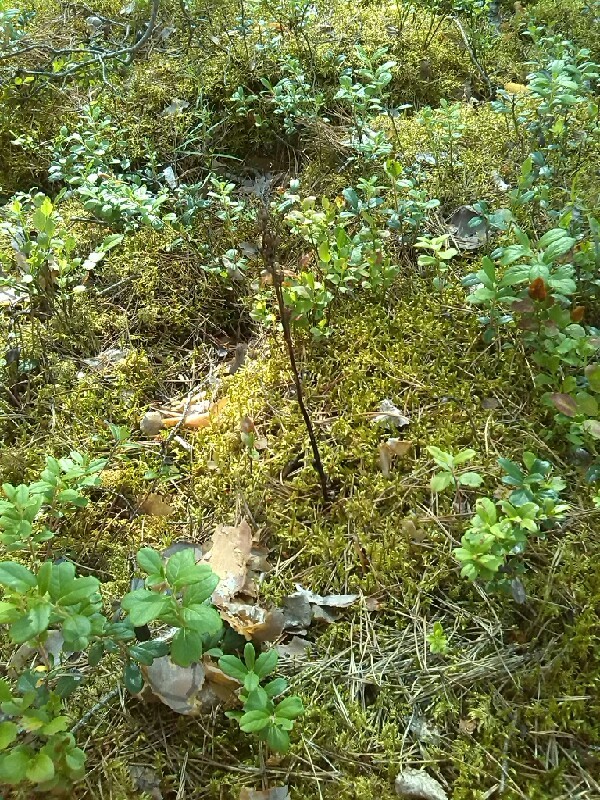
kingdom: Plantae
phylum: Tracheophyta
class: Magnoliopsida
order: Ericales
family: Ericaceae
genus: Hypopitys
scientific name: Hypopitys monotropa
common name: Yellow bird's-nest
